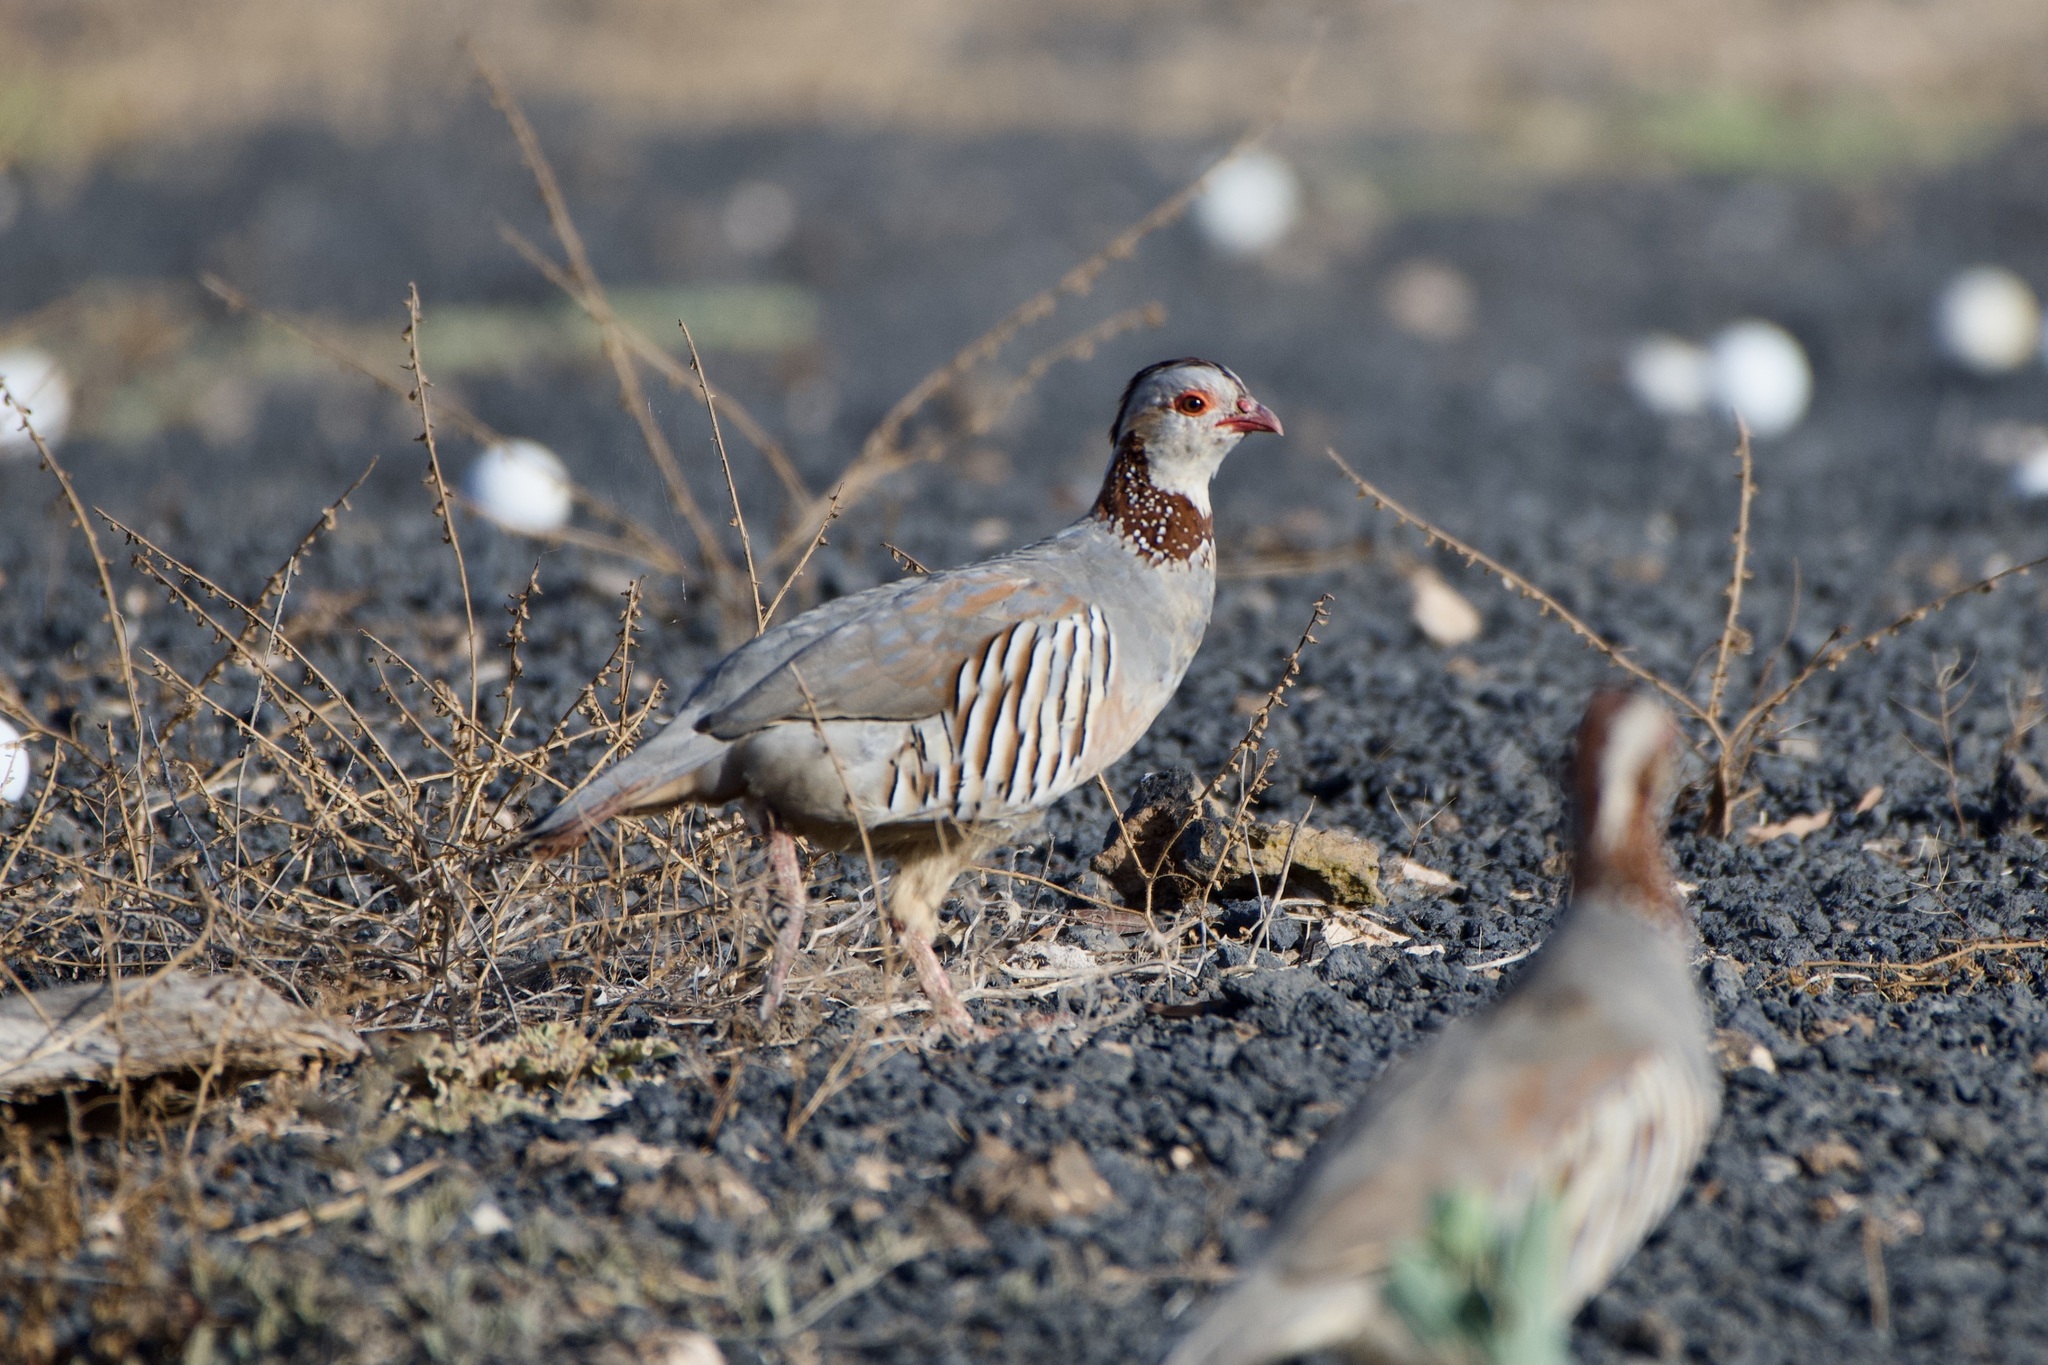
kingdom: Animalia
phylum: Chordata
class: Aves
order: Galliformes
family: Phasianidae
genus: Alectoris
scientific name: Alectoris barbara
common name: Barbary partridge
